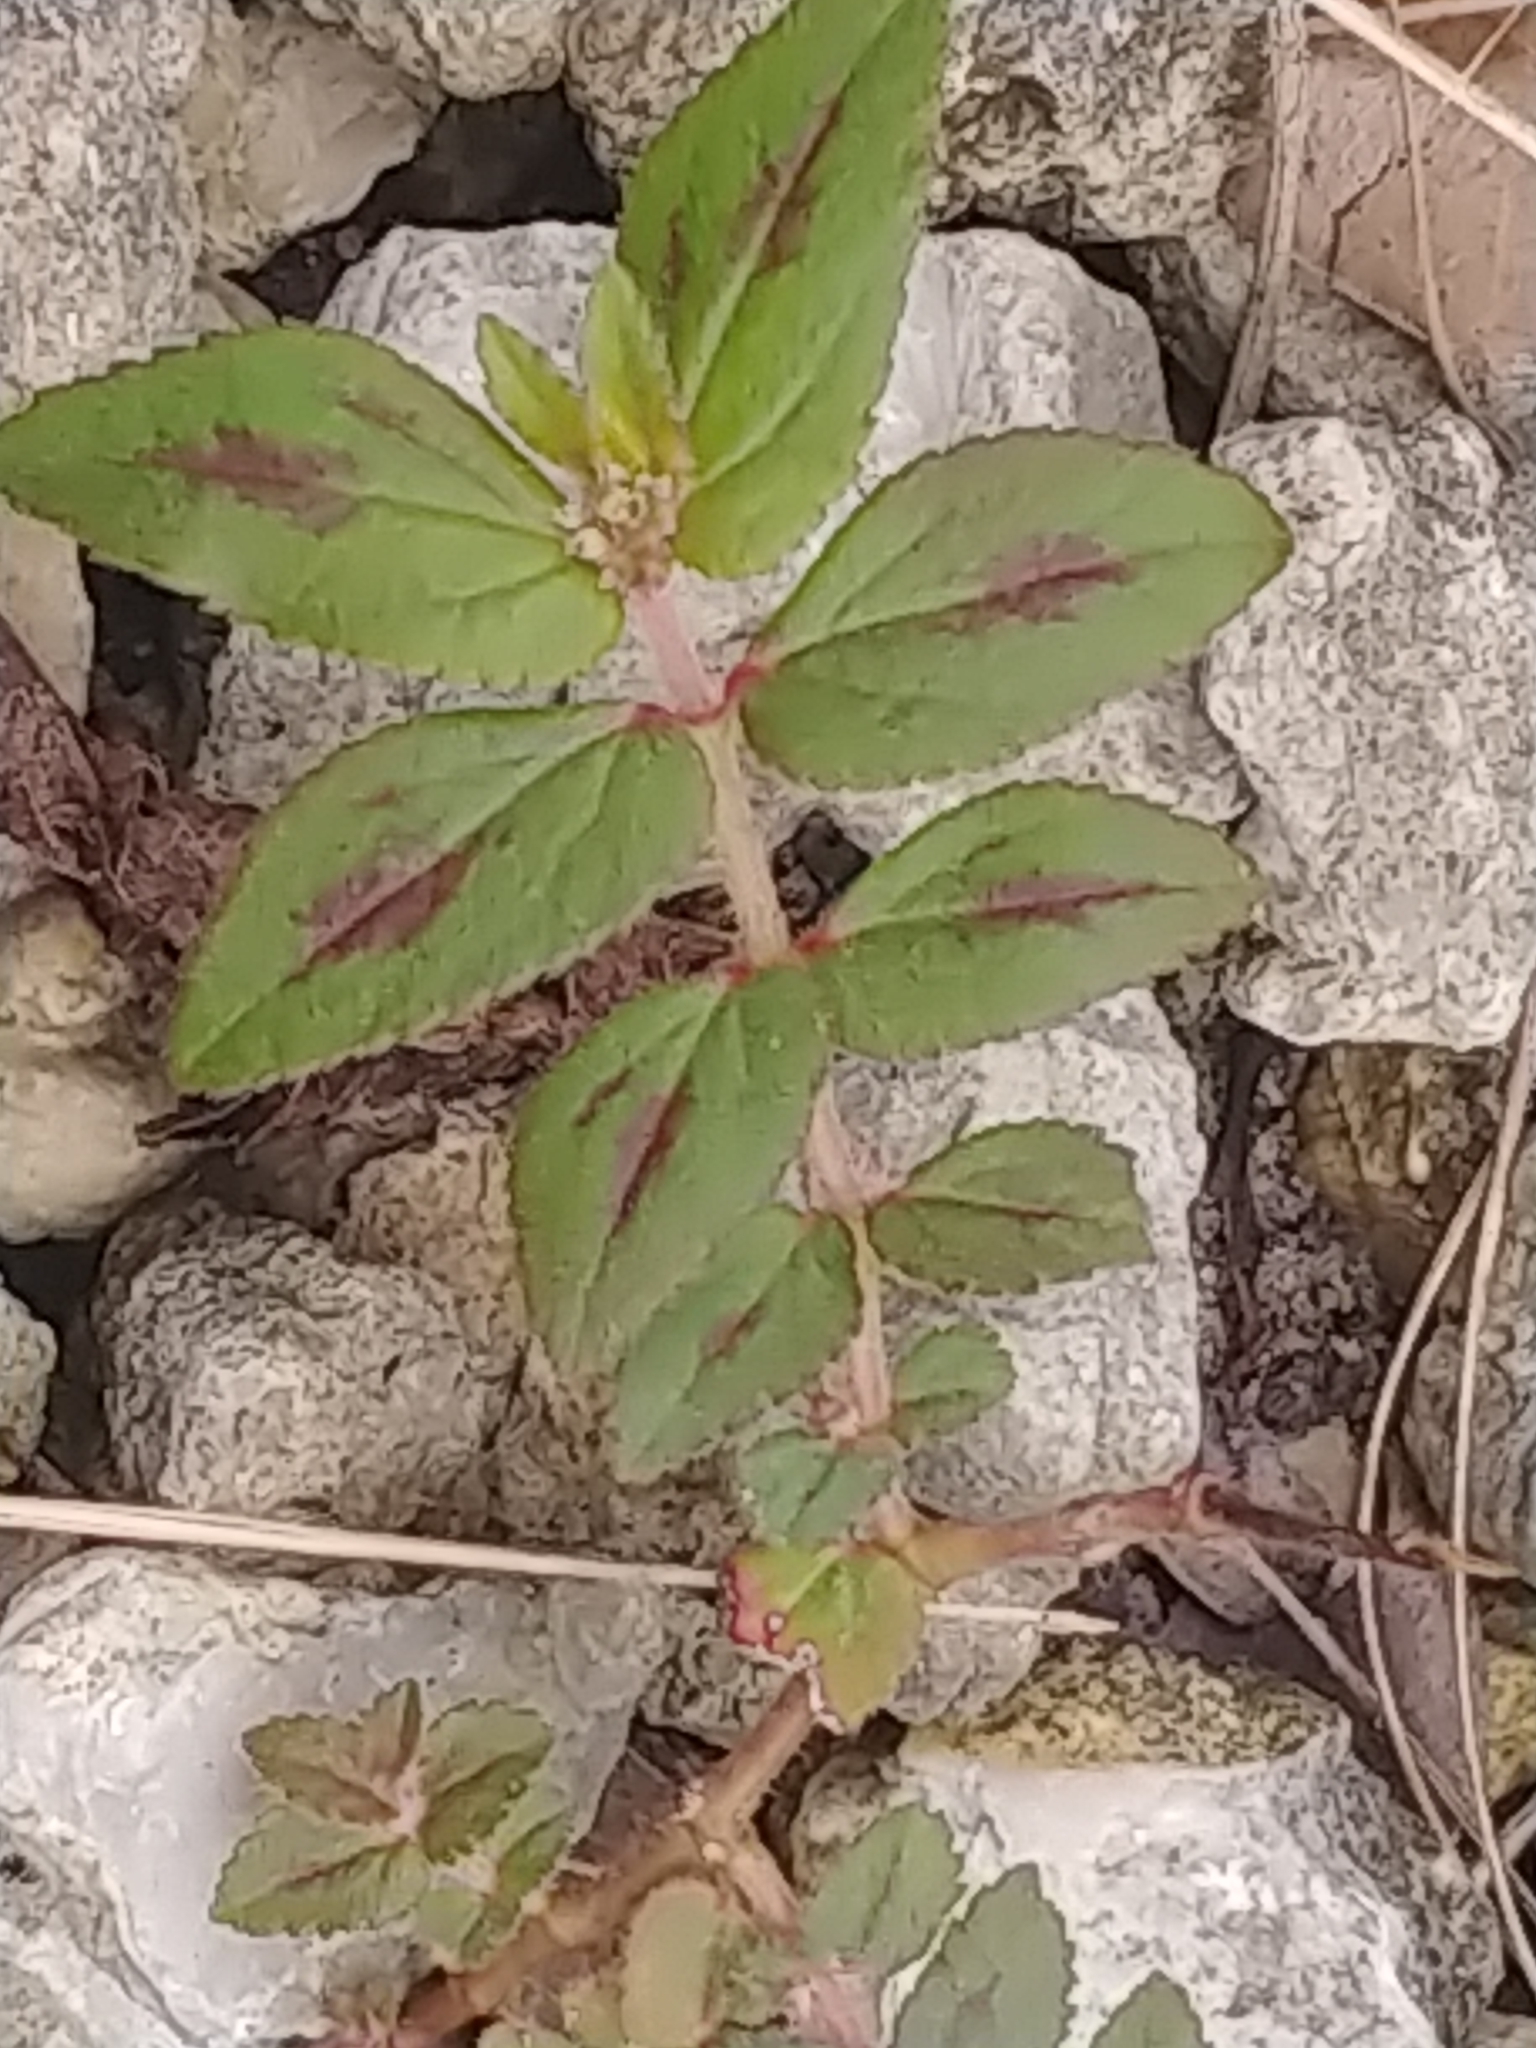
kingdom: Plantae
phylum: Tracheophyta
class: Magnoliopsida
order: Malpighiales
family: Euphorbiaceae
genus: Euphorbia
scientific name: Euphorbia hirta
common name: Pillpod sandmat
